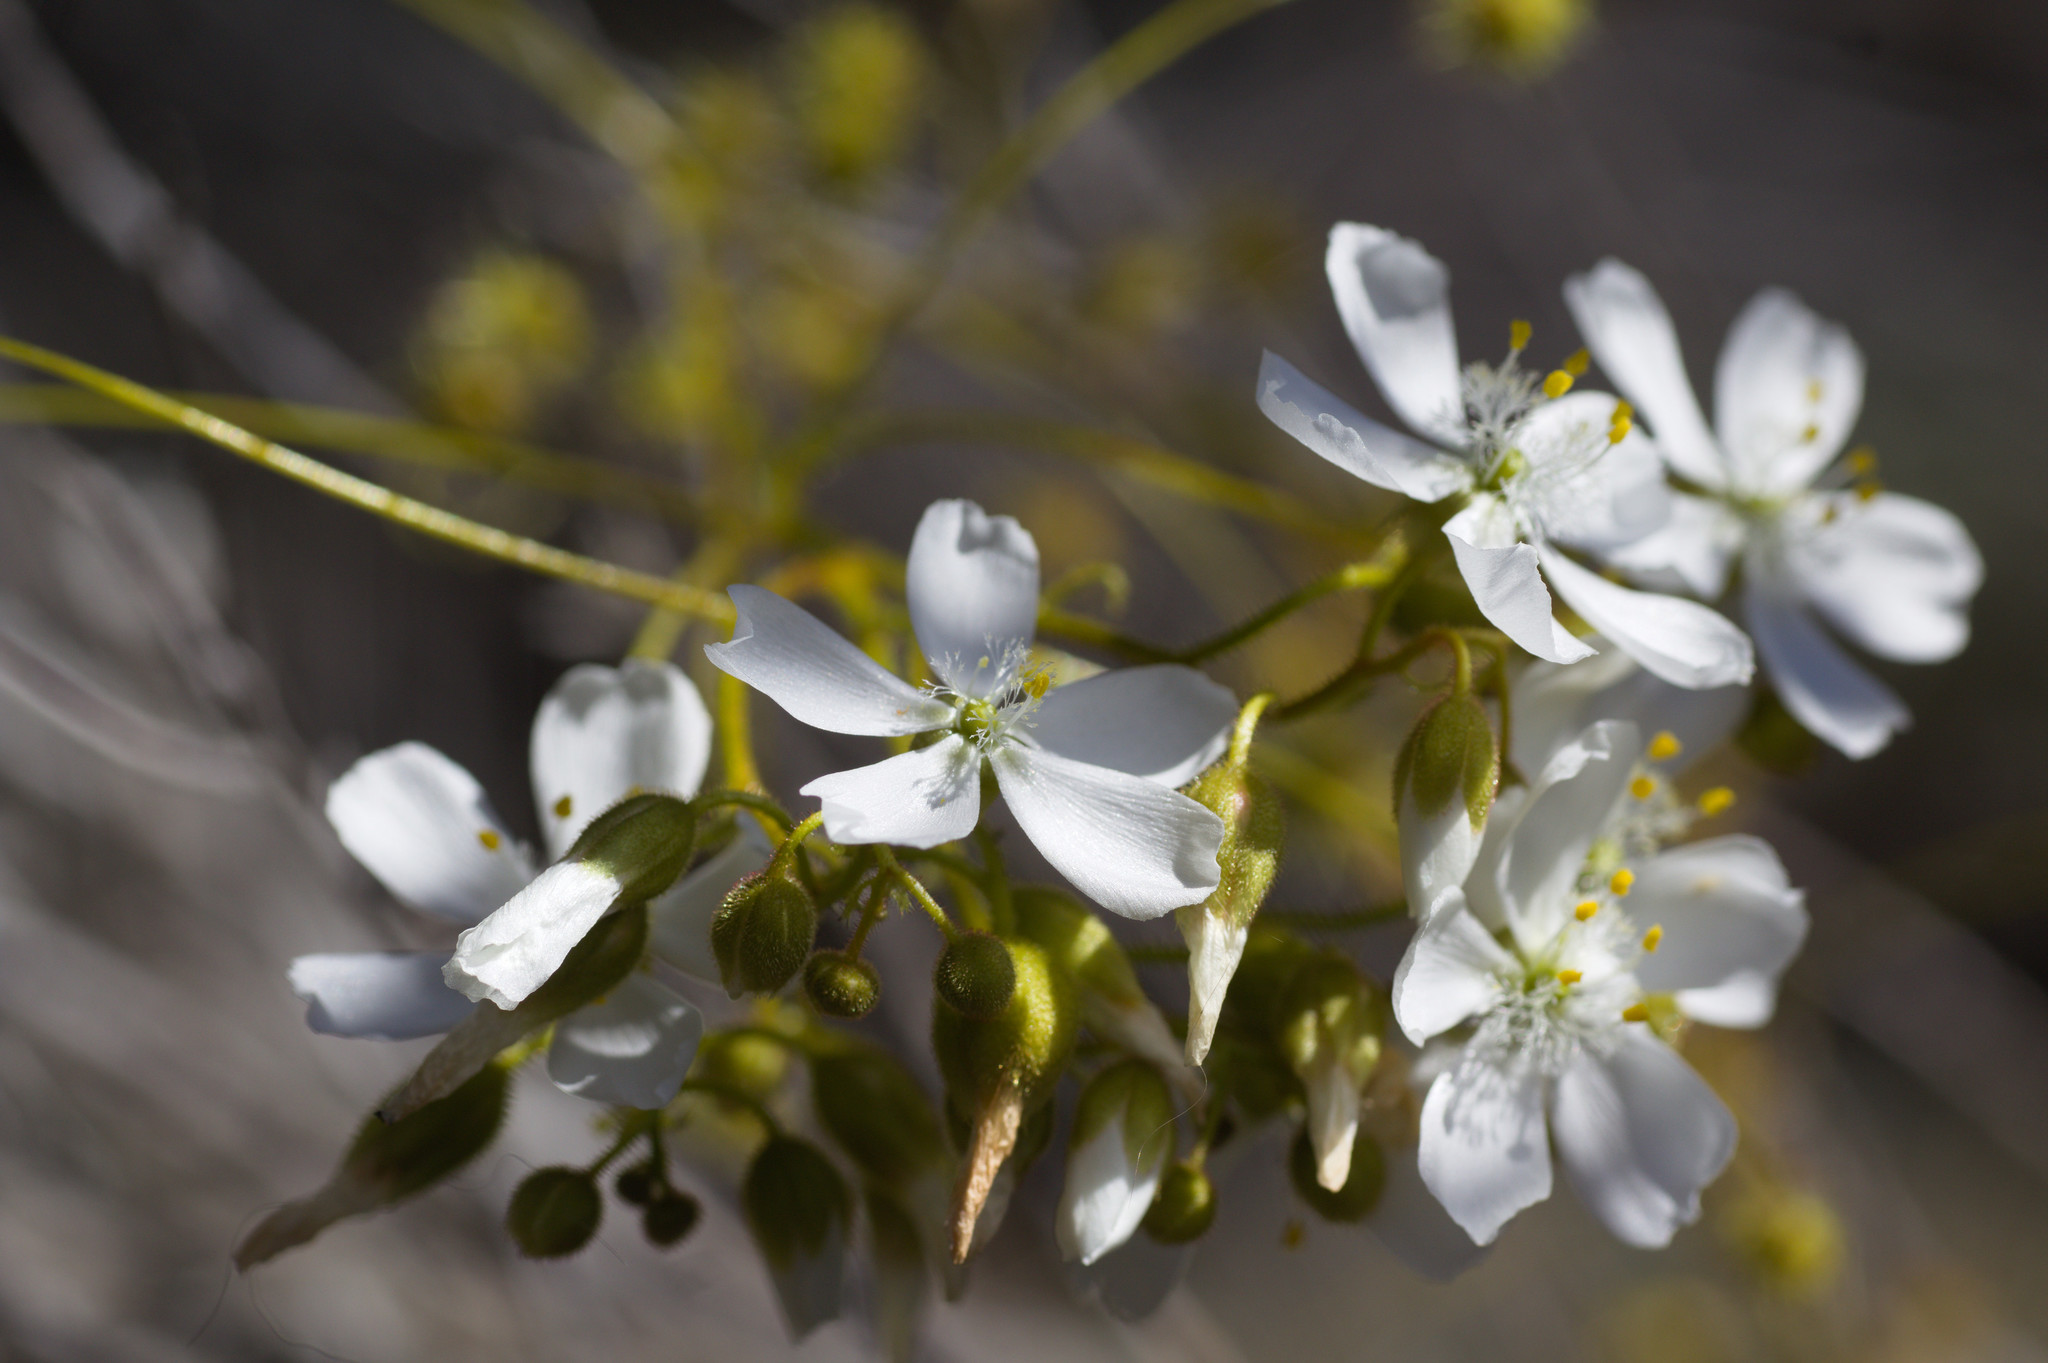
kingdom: Plantae
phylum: Tracheophyta
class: Magnoliopsida
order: Caryophyllales
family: Droseraceae
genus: Drosera
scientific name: Drosera macrantha
